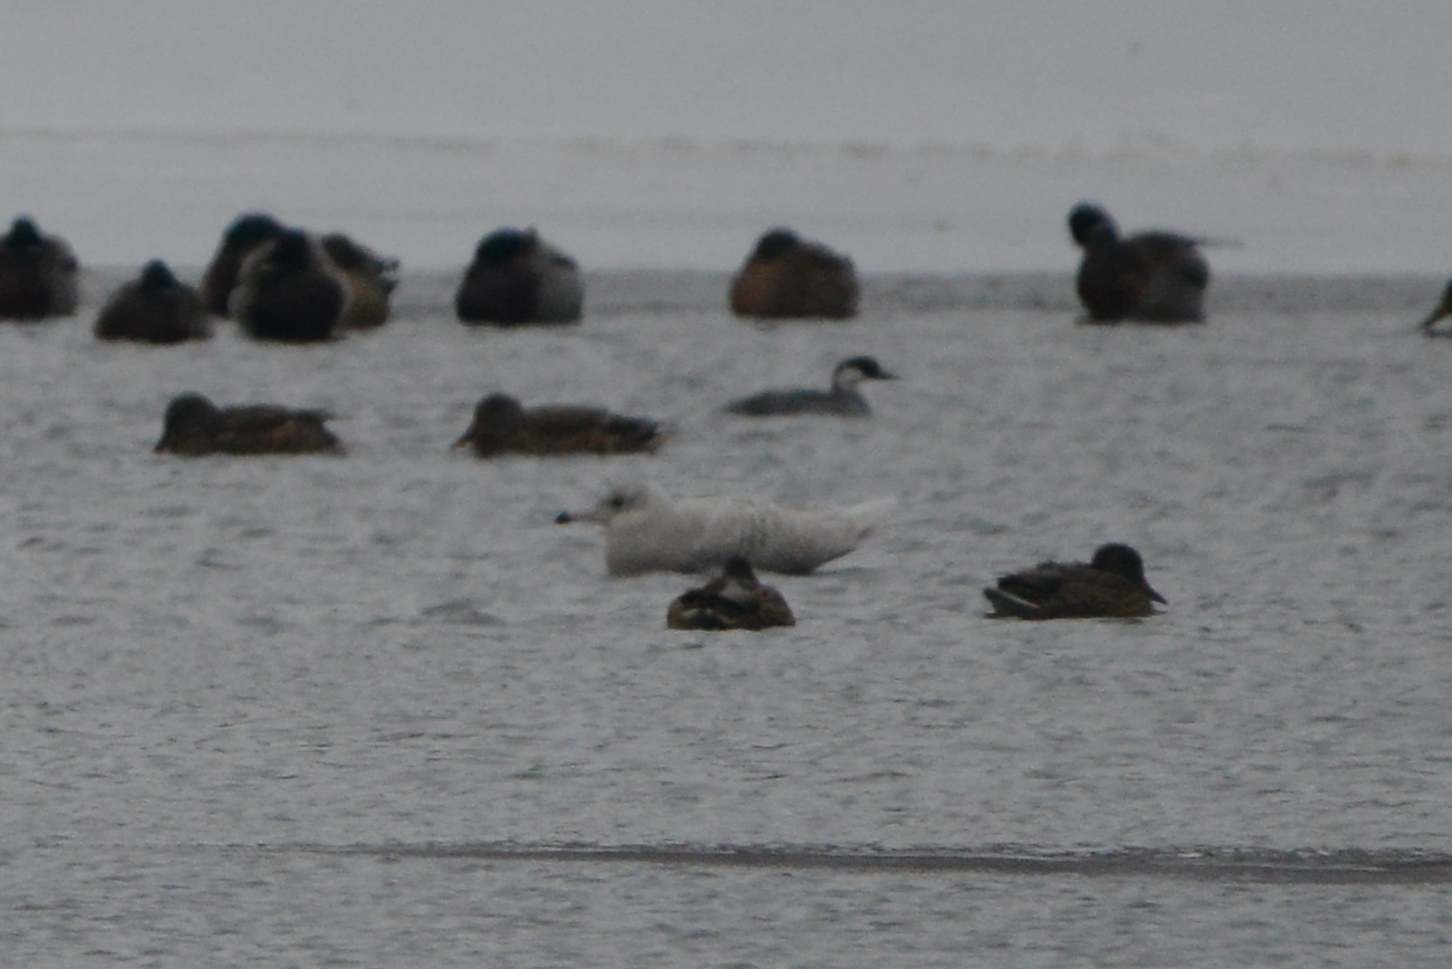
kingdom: Animalia
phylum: Chordata
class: Aves
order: Charadriiformes
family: Laridae
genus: Larus
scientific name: Larus hyperboreus
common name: Glaucous gull
